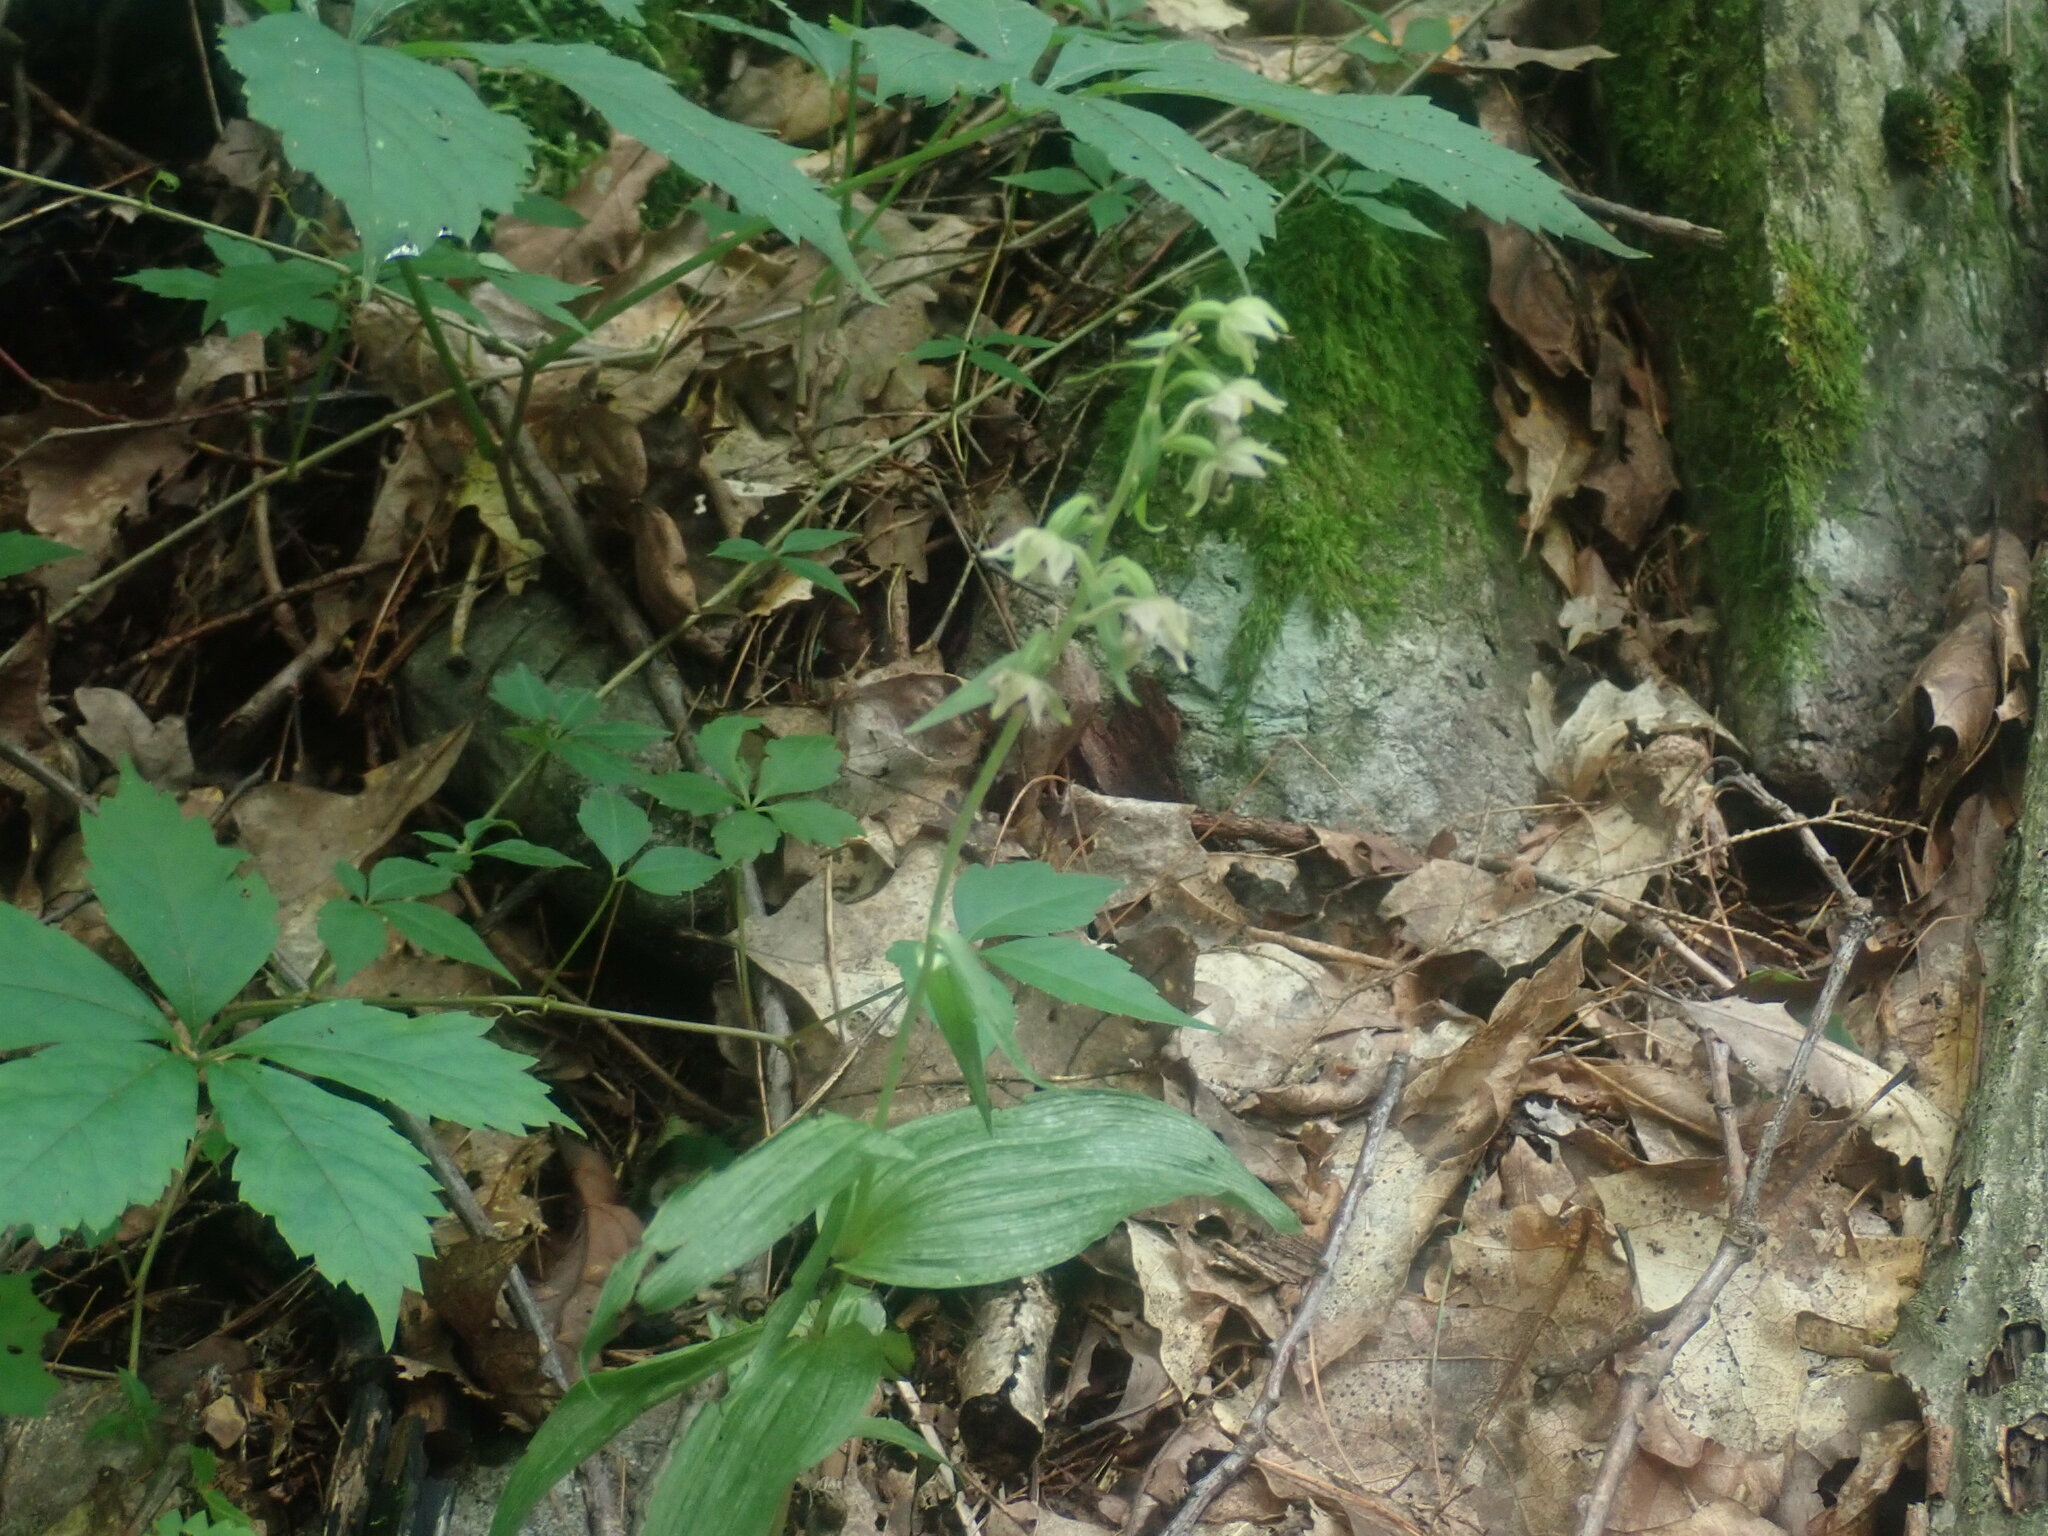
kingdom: Plantae
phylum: Tracheophyta
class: Liliopsida
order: Asparagales
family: Orchidaceae
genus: Epipactis
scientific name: Epipactis helleborine
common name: Broad-leaved helleborine
